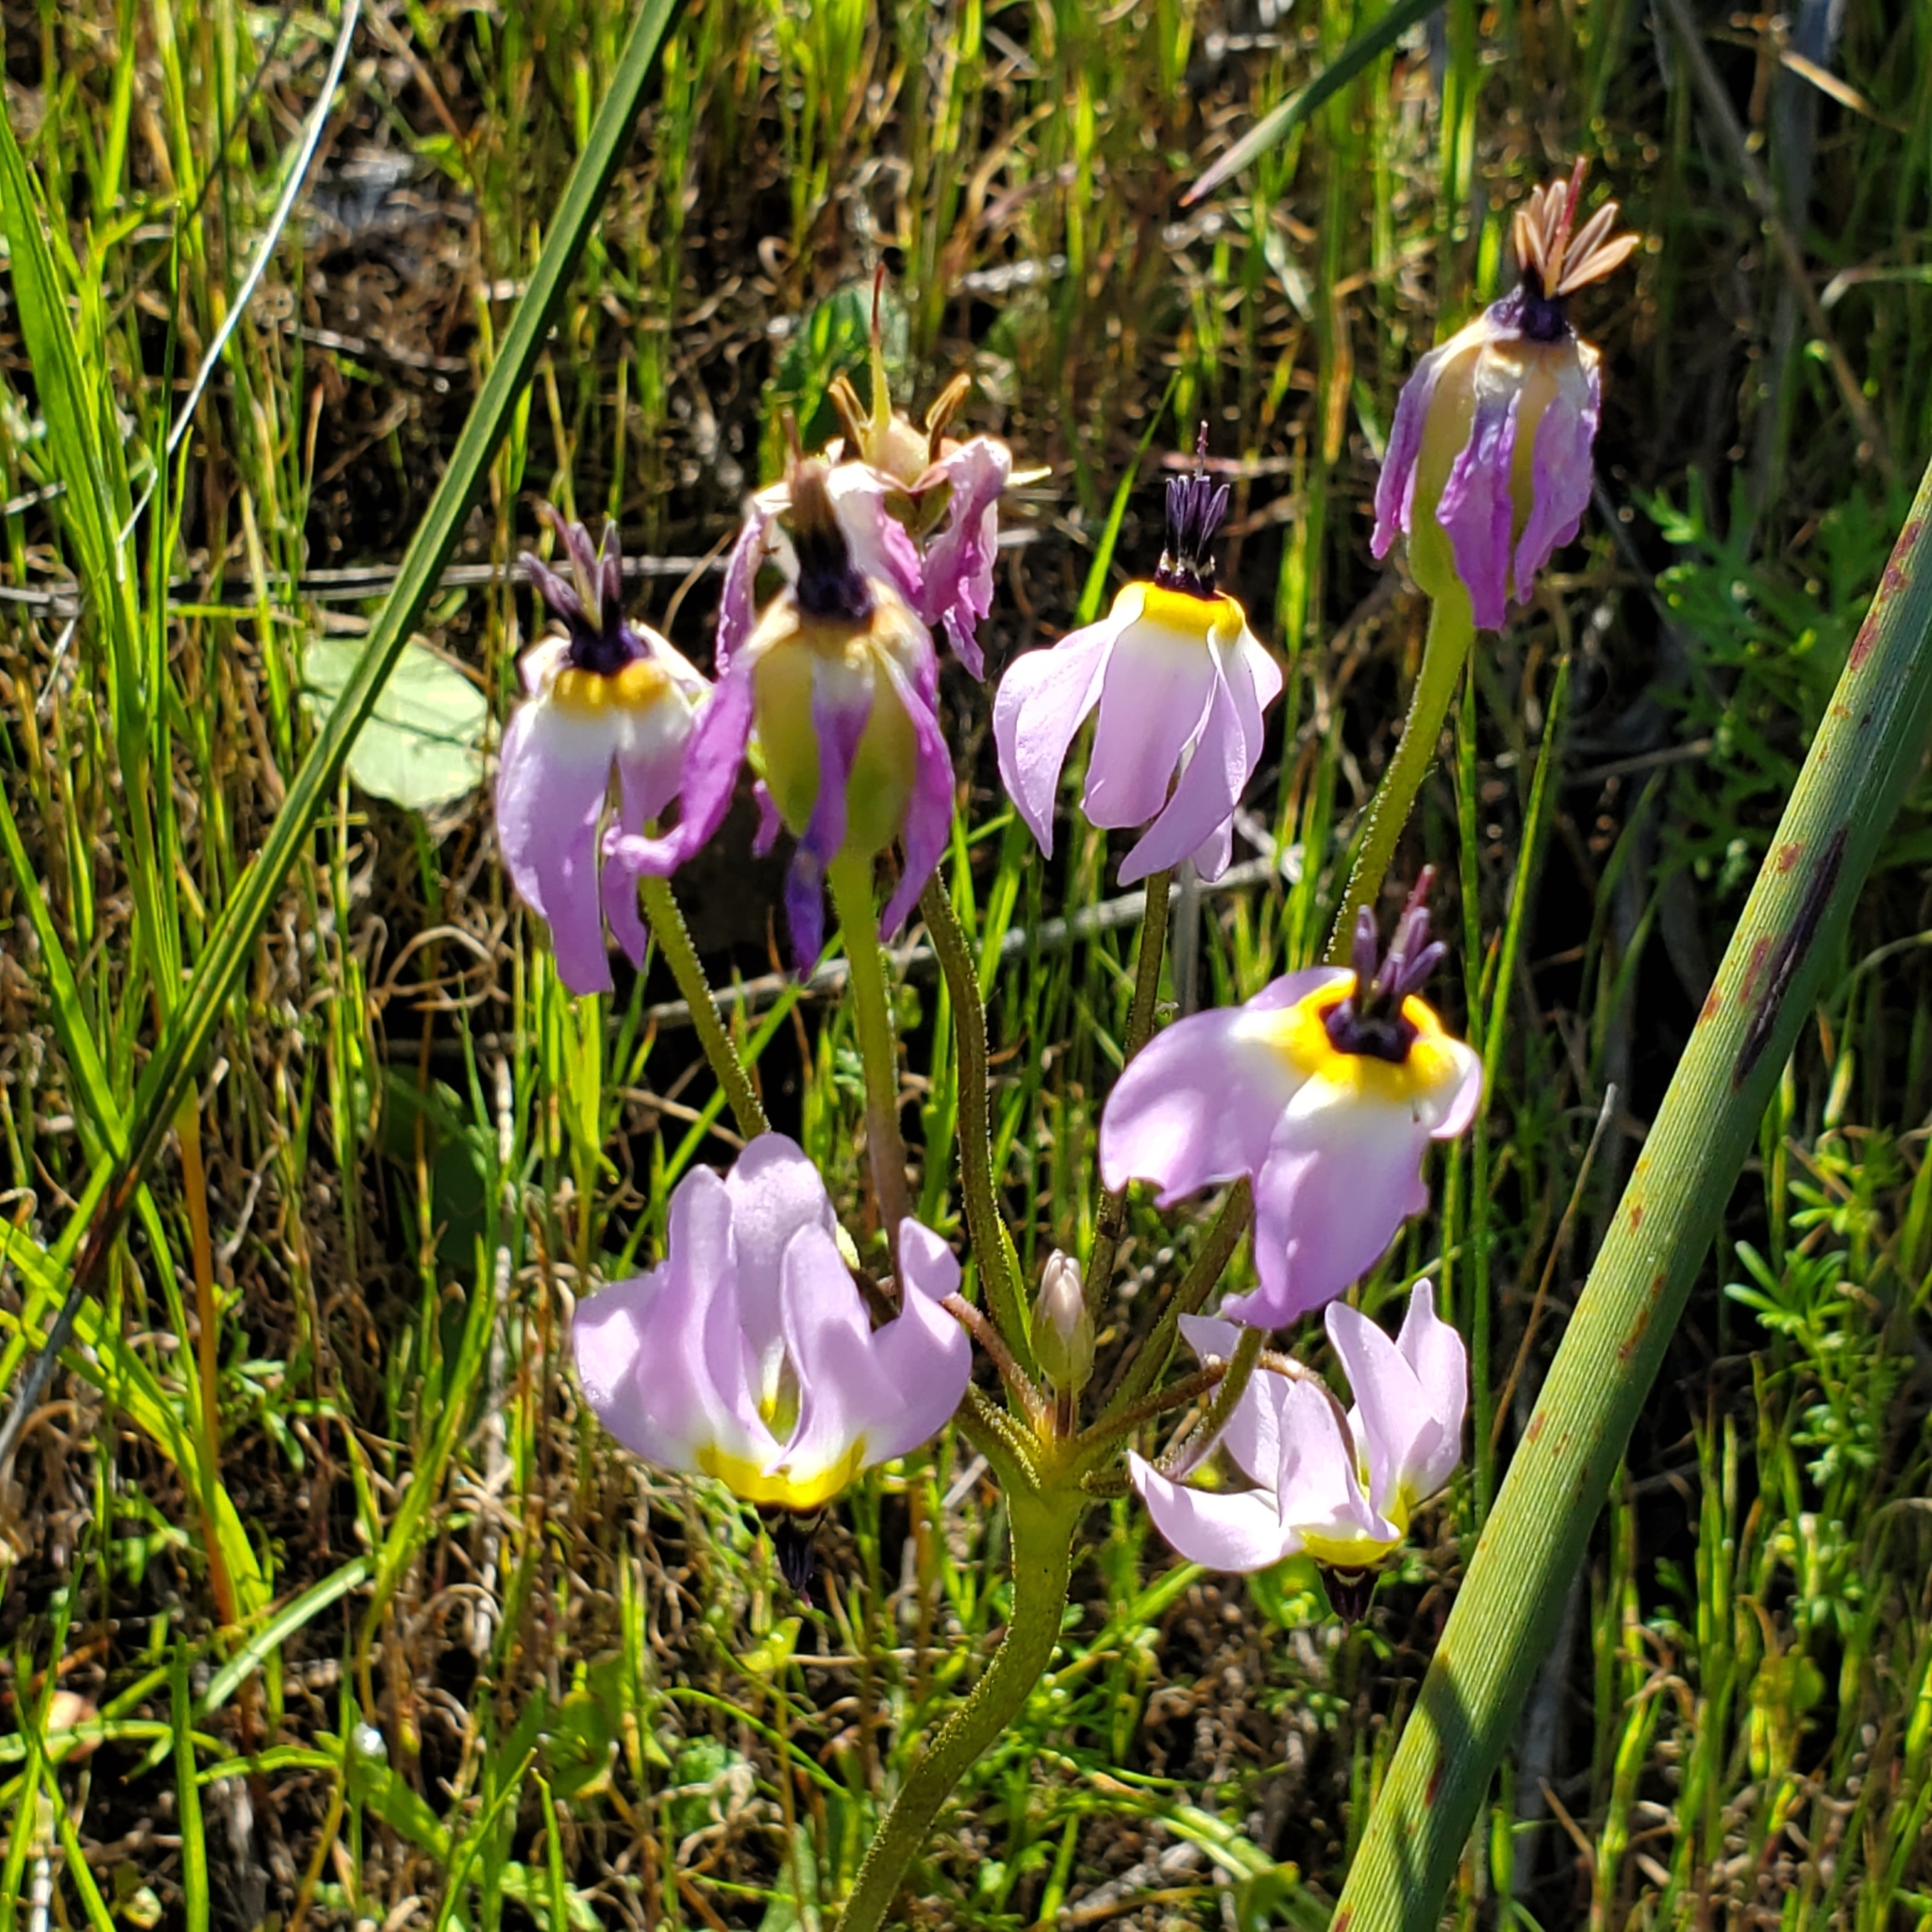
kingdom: Plantae
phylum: Tracheophyta
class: Magnoliopsida
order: Ericales
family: Primulaceae
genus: Dodecatheon
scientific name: Dodecatheon clevelandii
